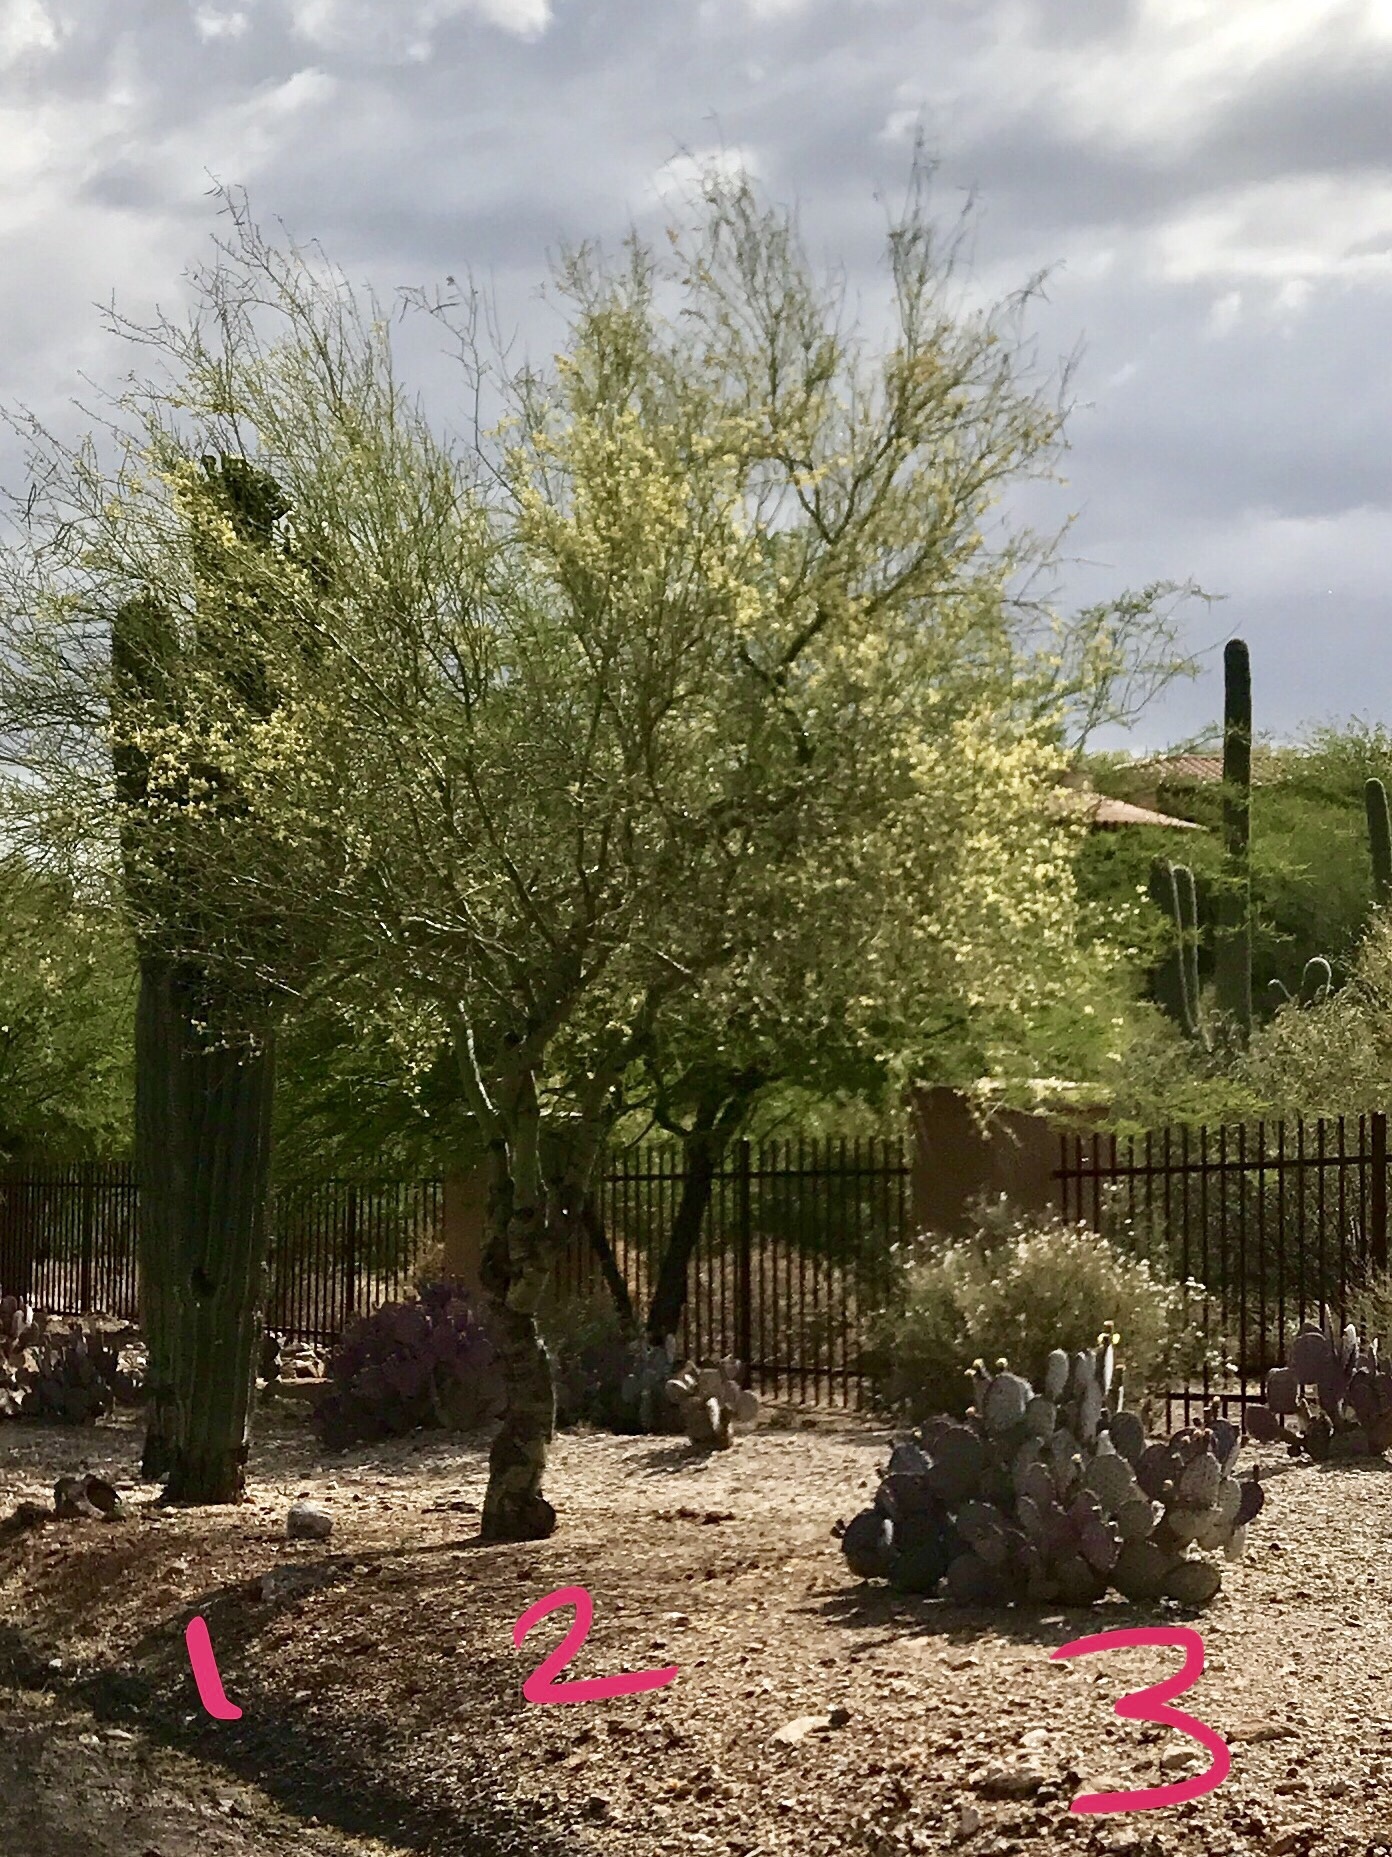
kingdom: Plantae
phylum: Tracheophyta
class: Magnoliopsida
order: Fabales
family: Fabaceae
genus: Parkinsonia
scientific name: Parkinsonia microphylla
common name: Yellow paloverde
